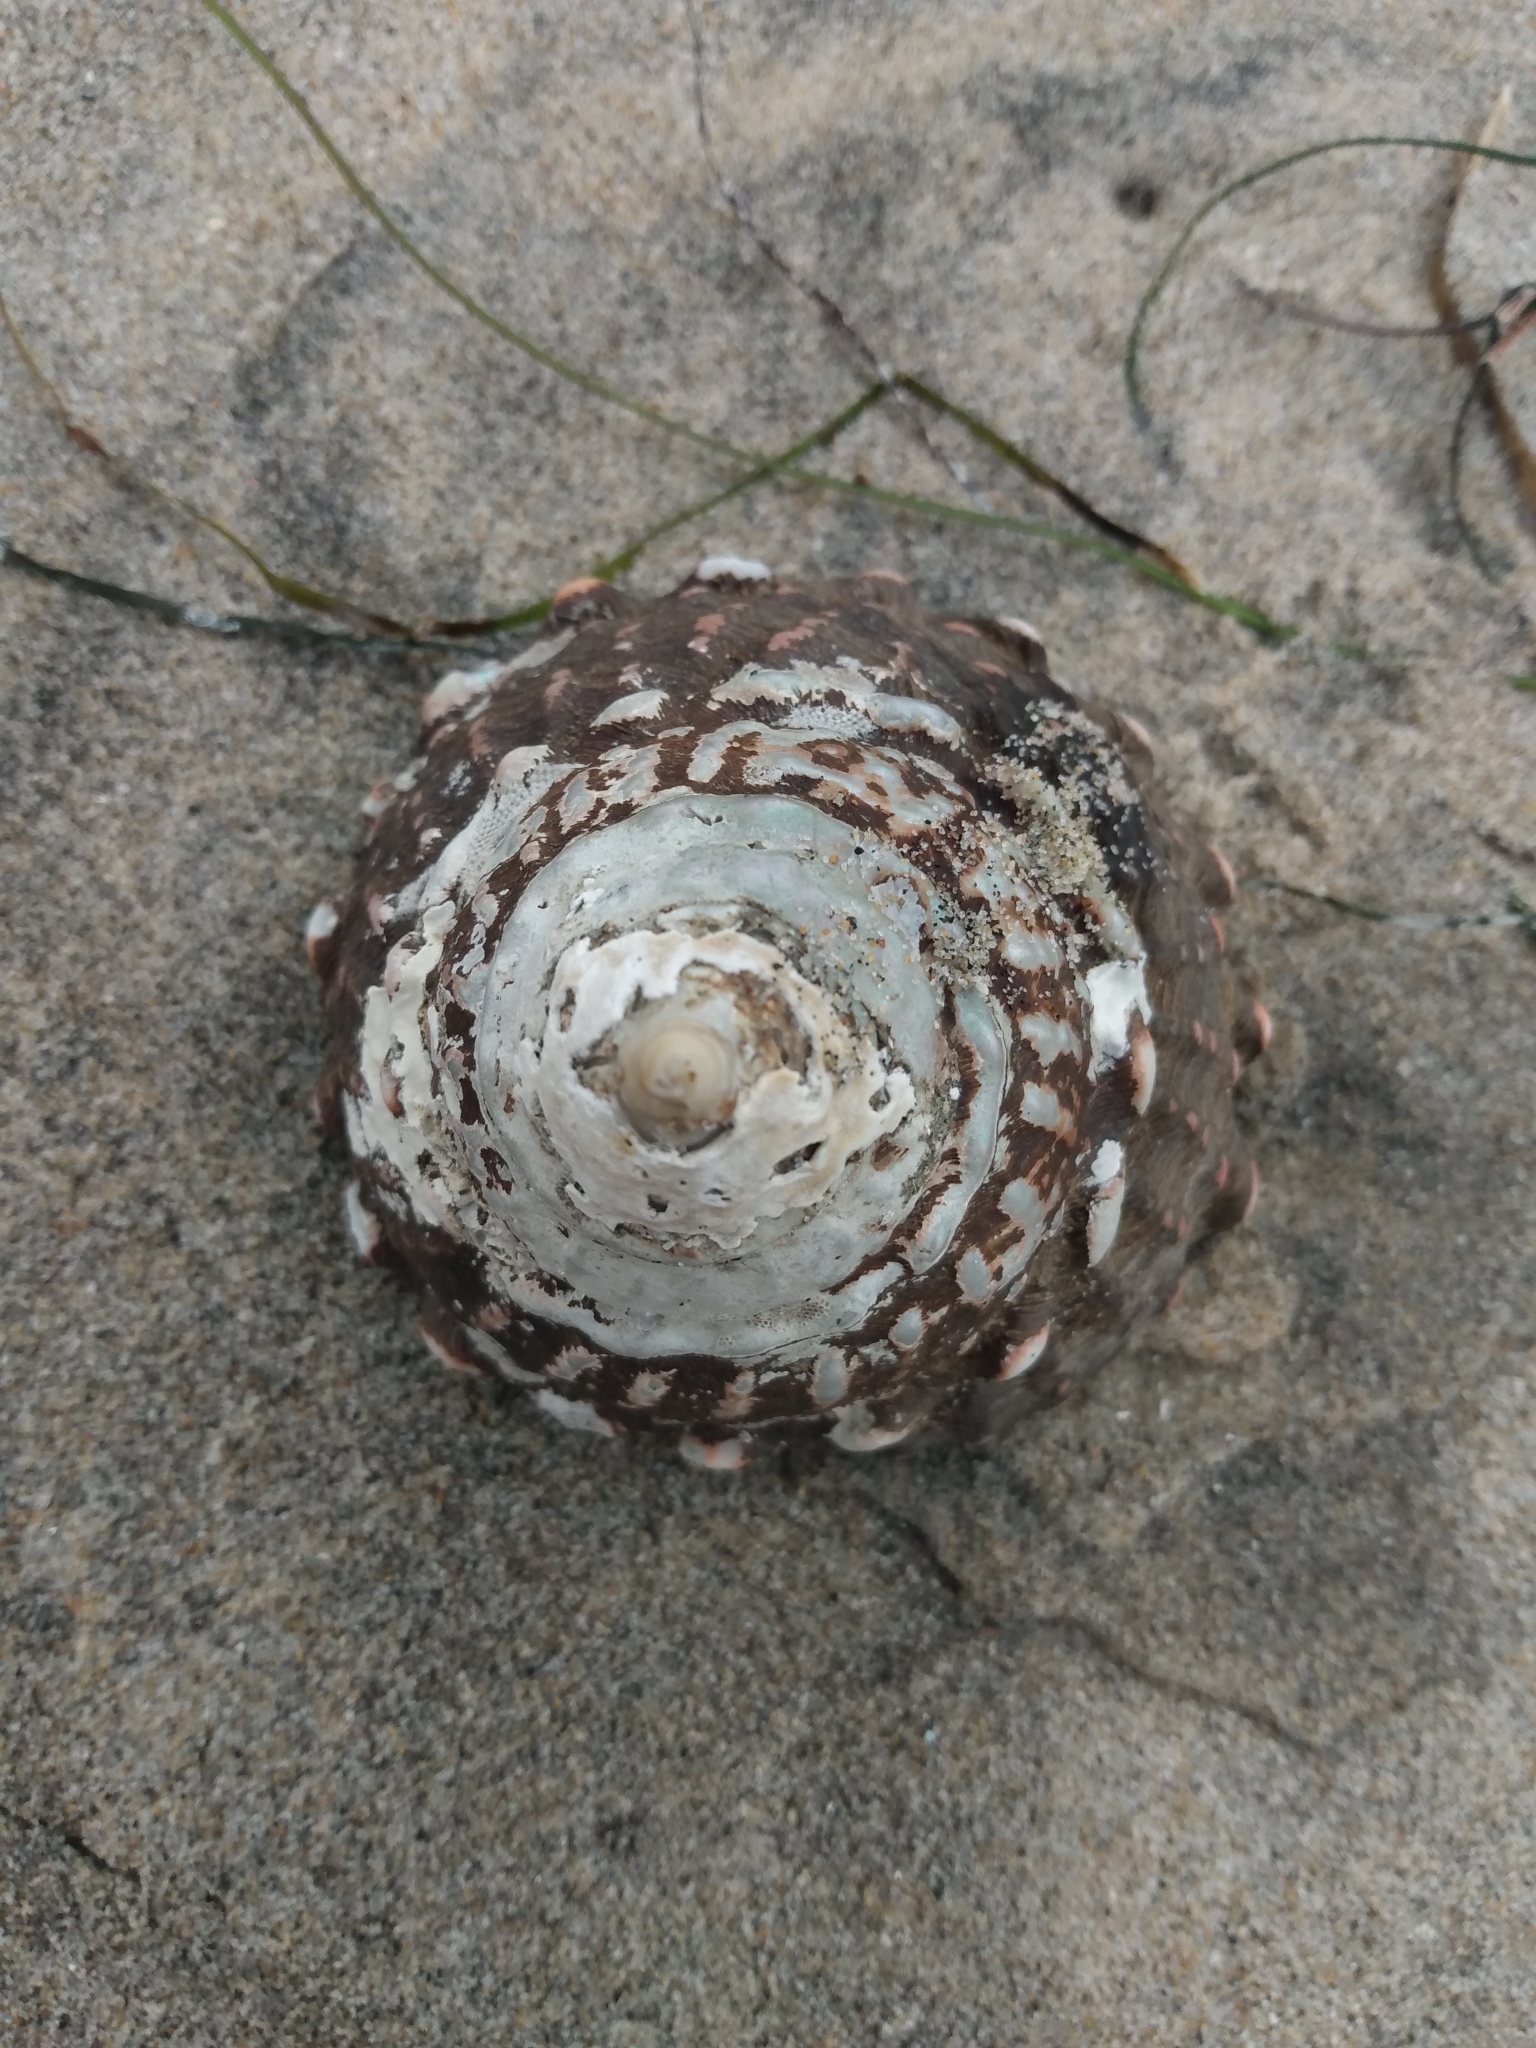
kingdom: Animalia
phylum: Mollusca
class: Gastropoda
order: Trochida
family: Turbinidae
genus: Megastraea
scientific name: Megastraea undosa
